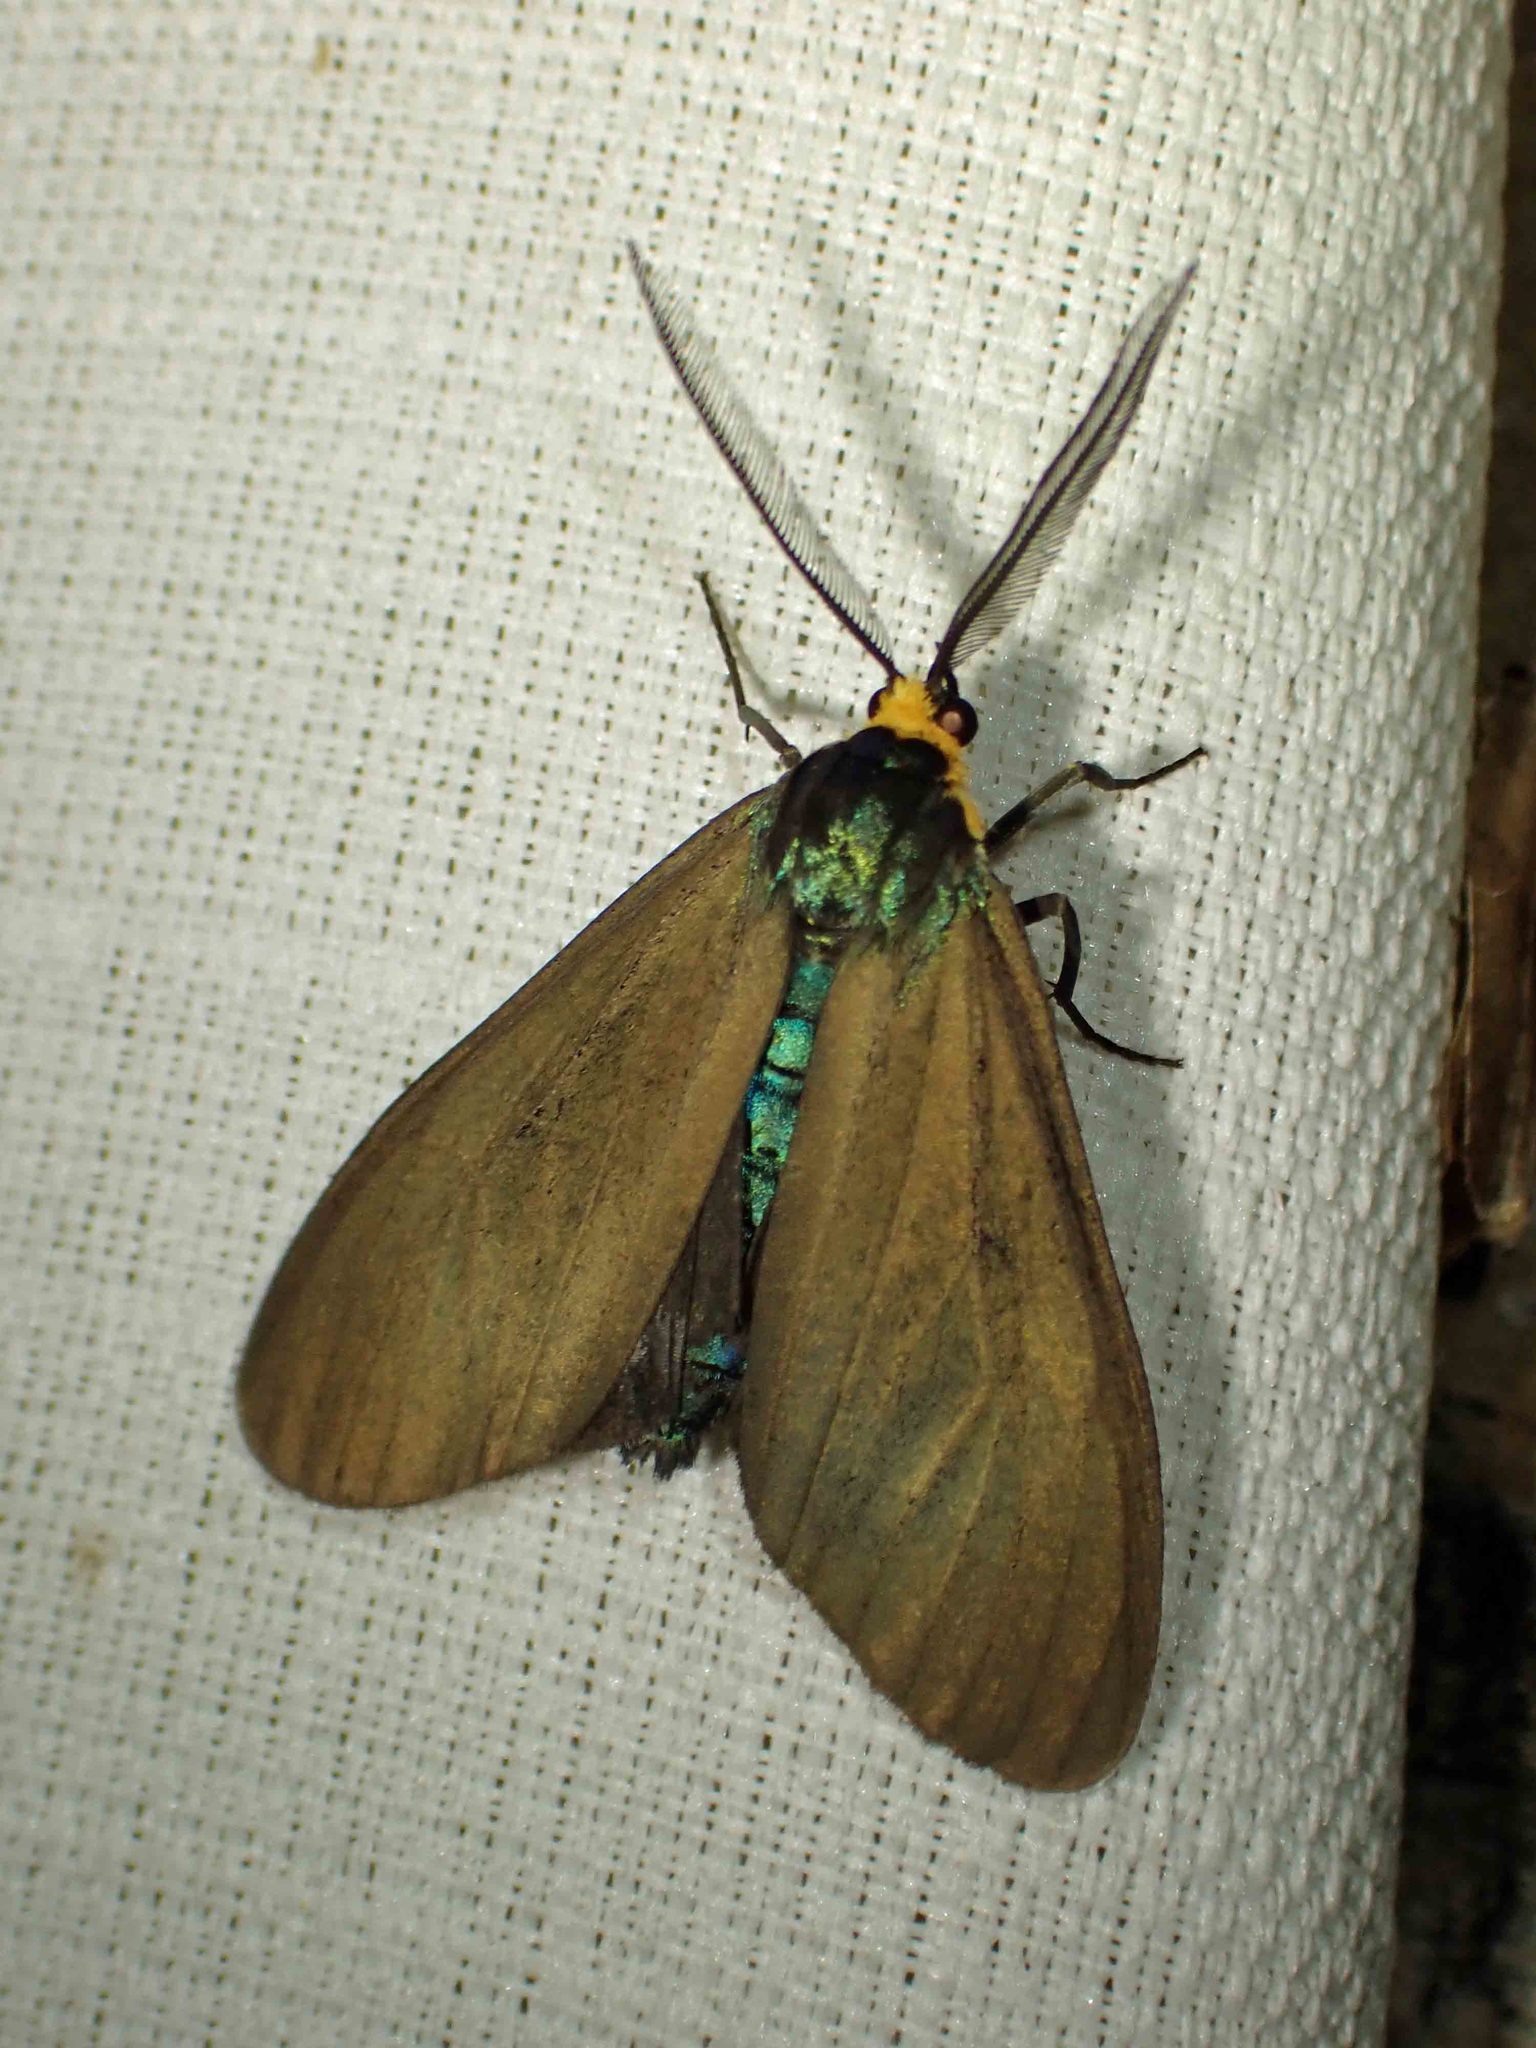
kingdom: Animalia
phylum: Arthropoda
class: Insecta
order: Lepidoptera
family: Erebidae
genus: Ctenucha
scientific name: Ctenucha virginica
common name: Virginia ctenucha moth
